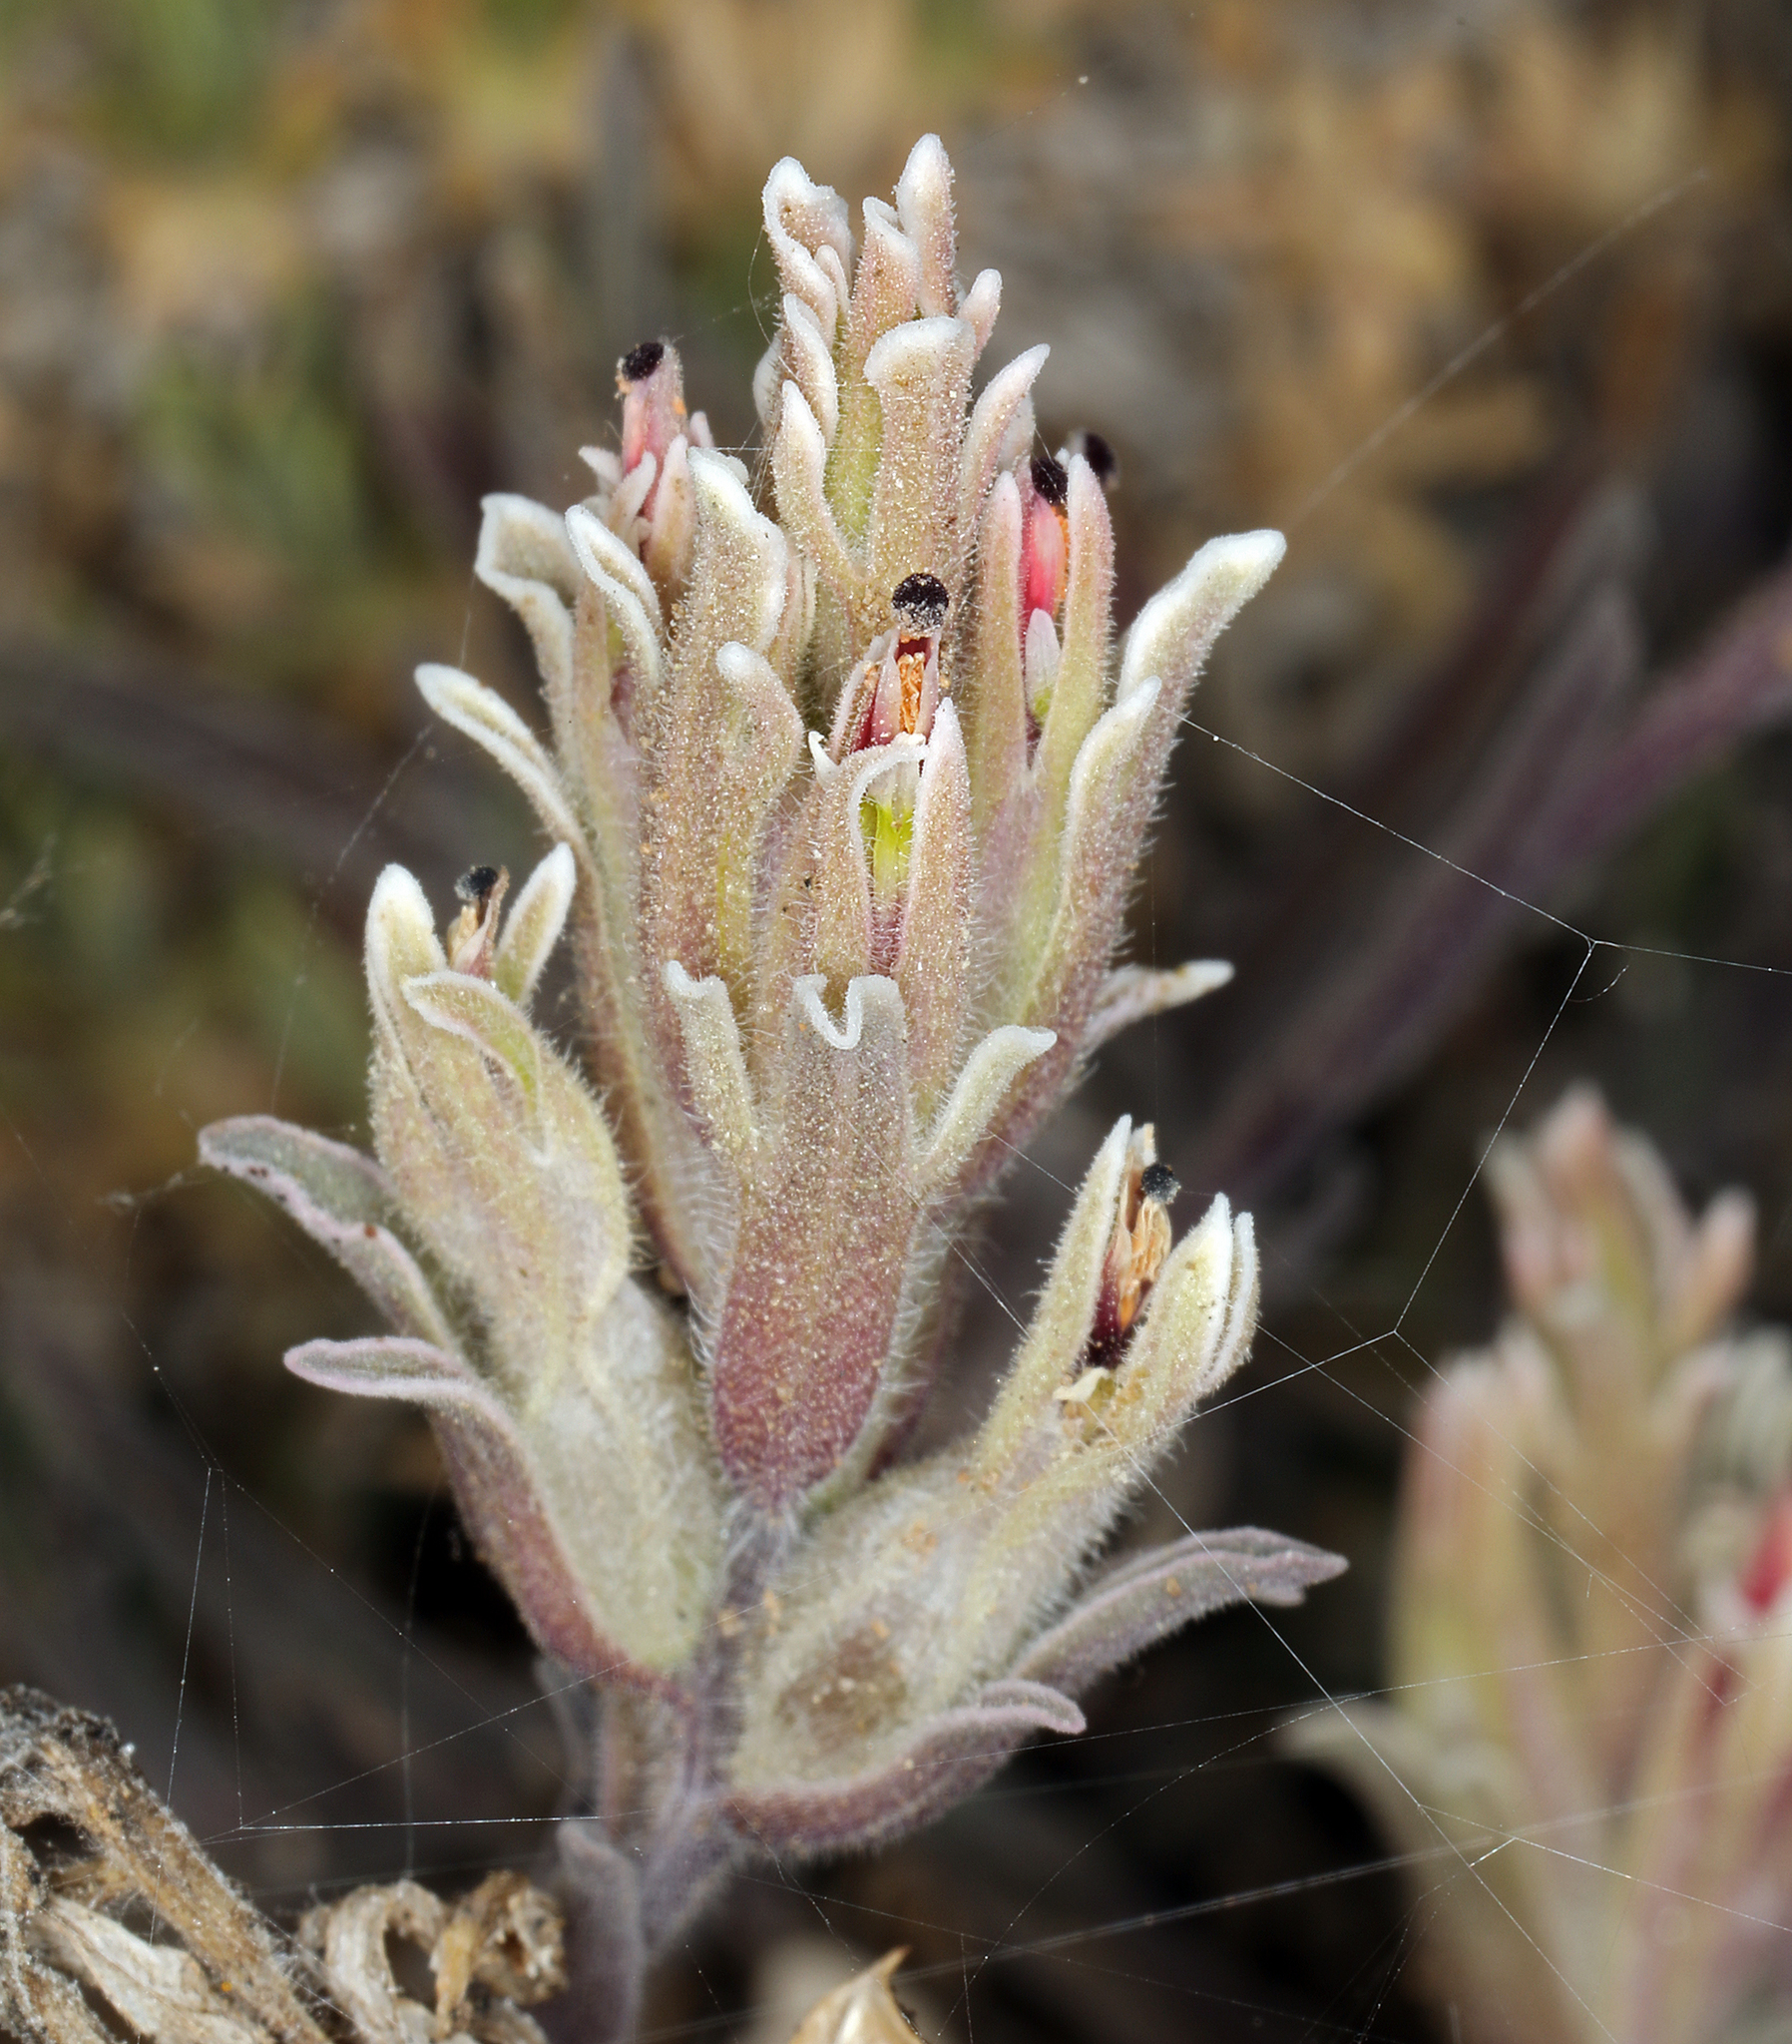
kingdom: Plantae
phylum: Tracheophyta
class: Magnoliopsida
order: Lamiales
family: Orobanchaceae
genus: Castilleja
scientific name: Castilleja nana
